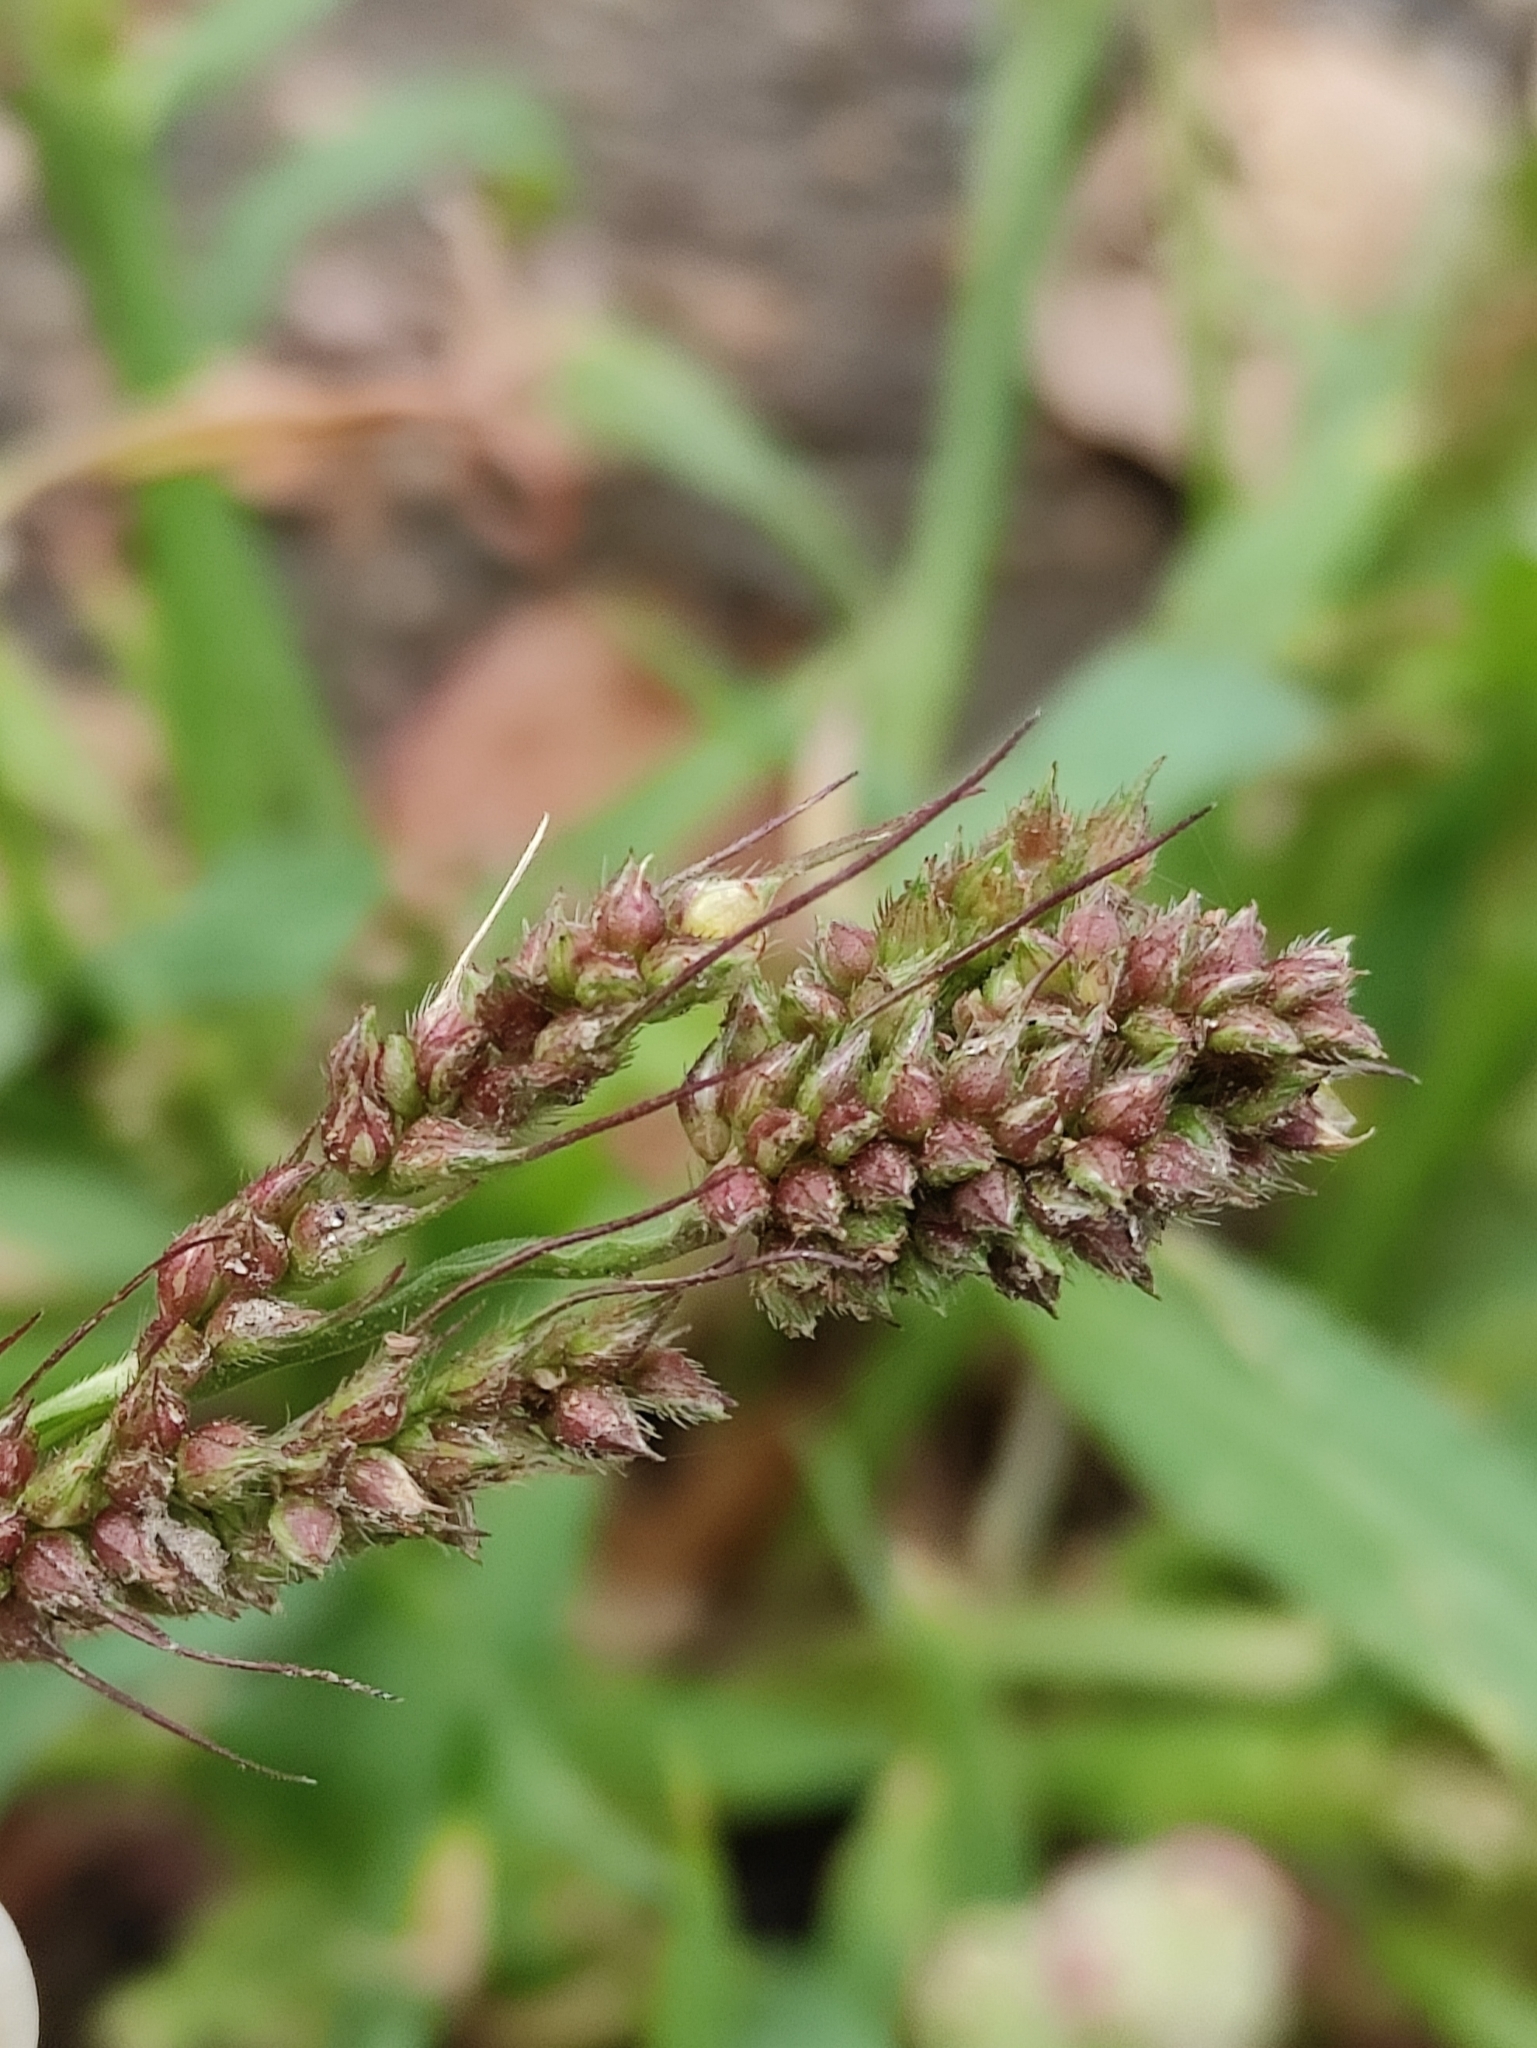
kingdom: Plantae
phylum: Tracheophyta
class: Liliopsida
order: Poales
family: Poaceae
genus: Echinochloa
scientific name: Echinochloa crus-galli
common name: Cockspur
